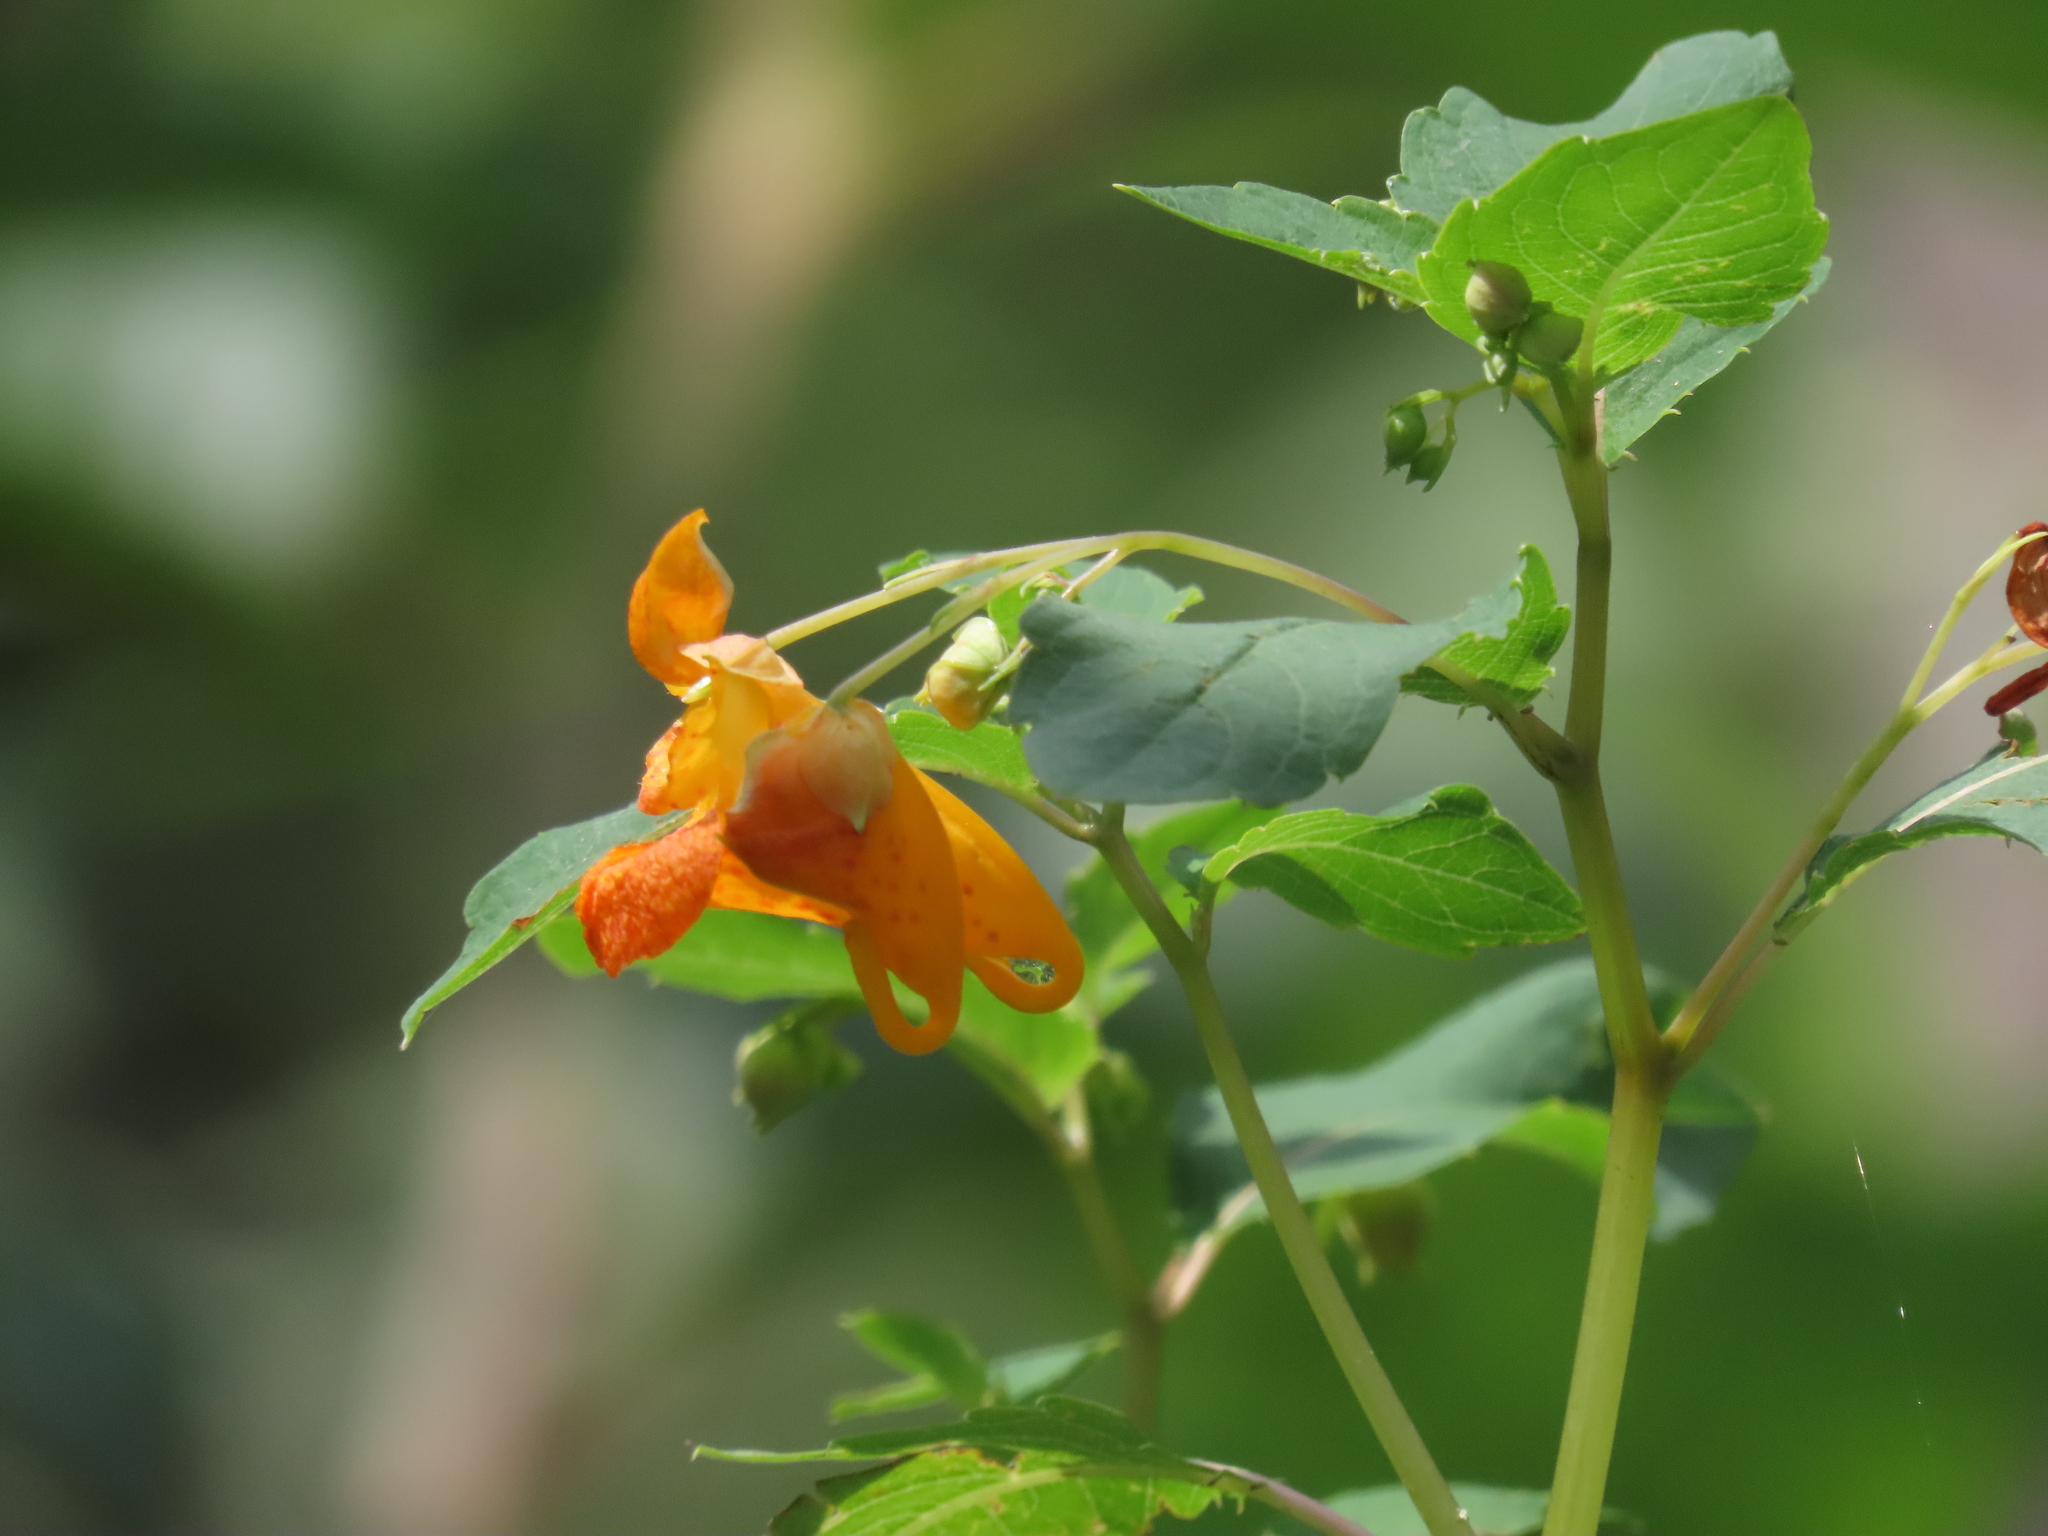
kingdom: Plantae
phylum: Tracheophyta
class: Magnoliopsida
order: Ericales
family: Balsaminaceae
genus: Impatiens
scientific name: Impatiens capensis
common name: Orange balsam
